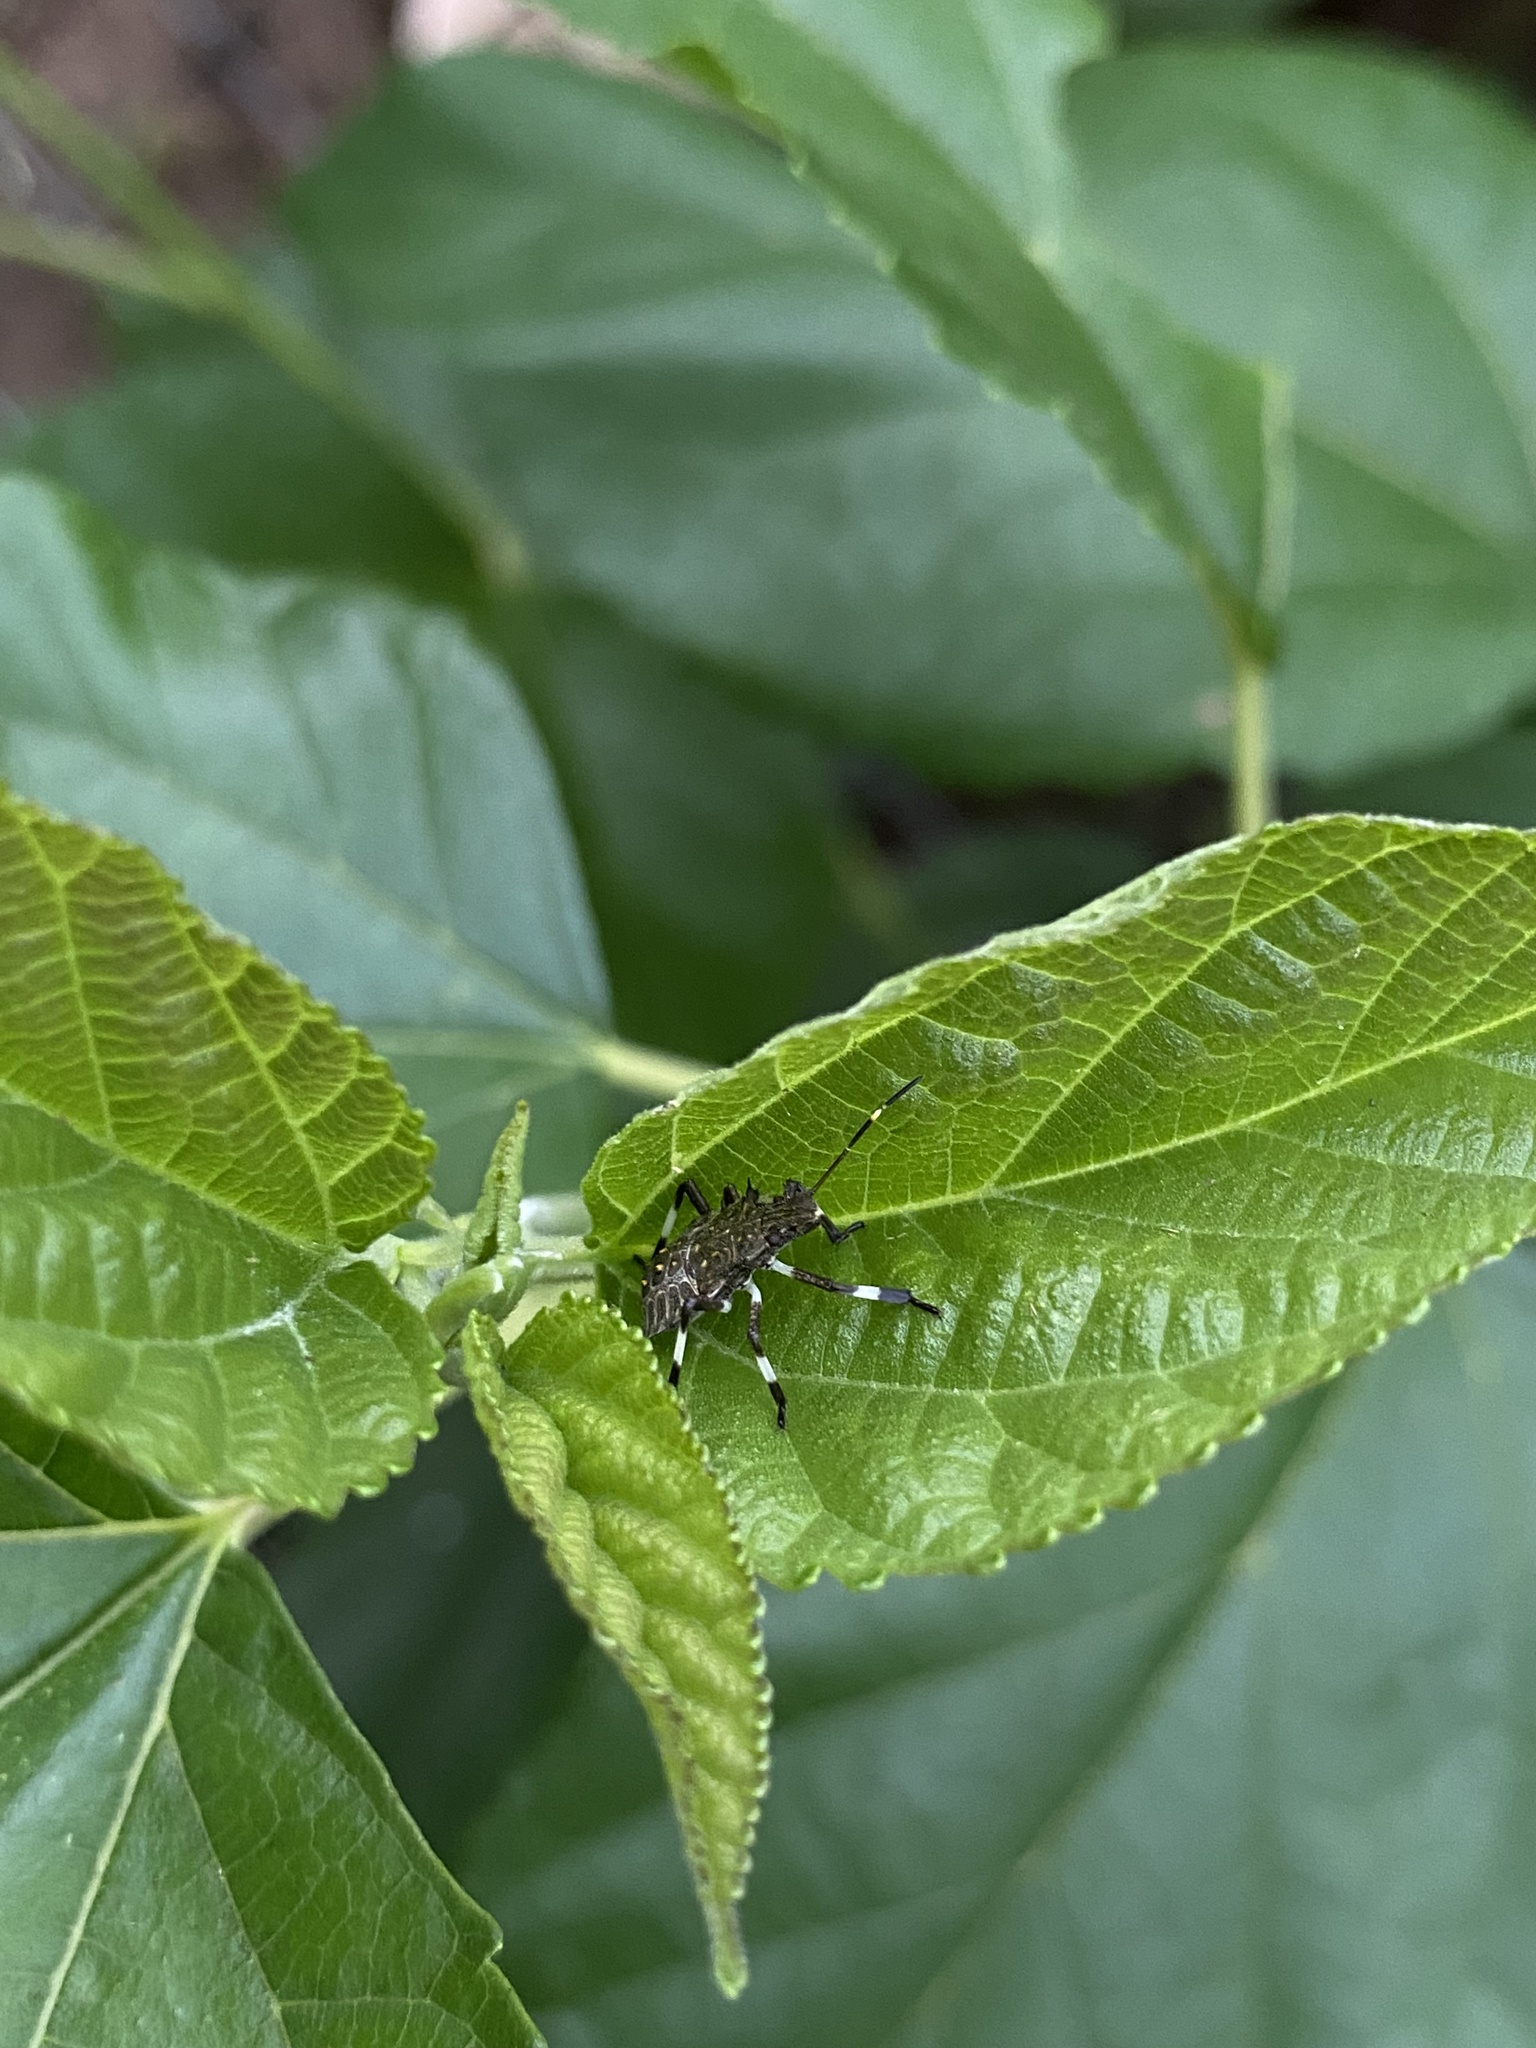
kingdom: Animalia
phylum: Arthropoda
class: Insecta
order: Hemiptera
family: Pentatomidae
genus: Halyomorpha
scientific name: Halyomorpha halys
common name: Brown marmorated stink bug
